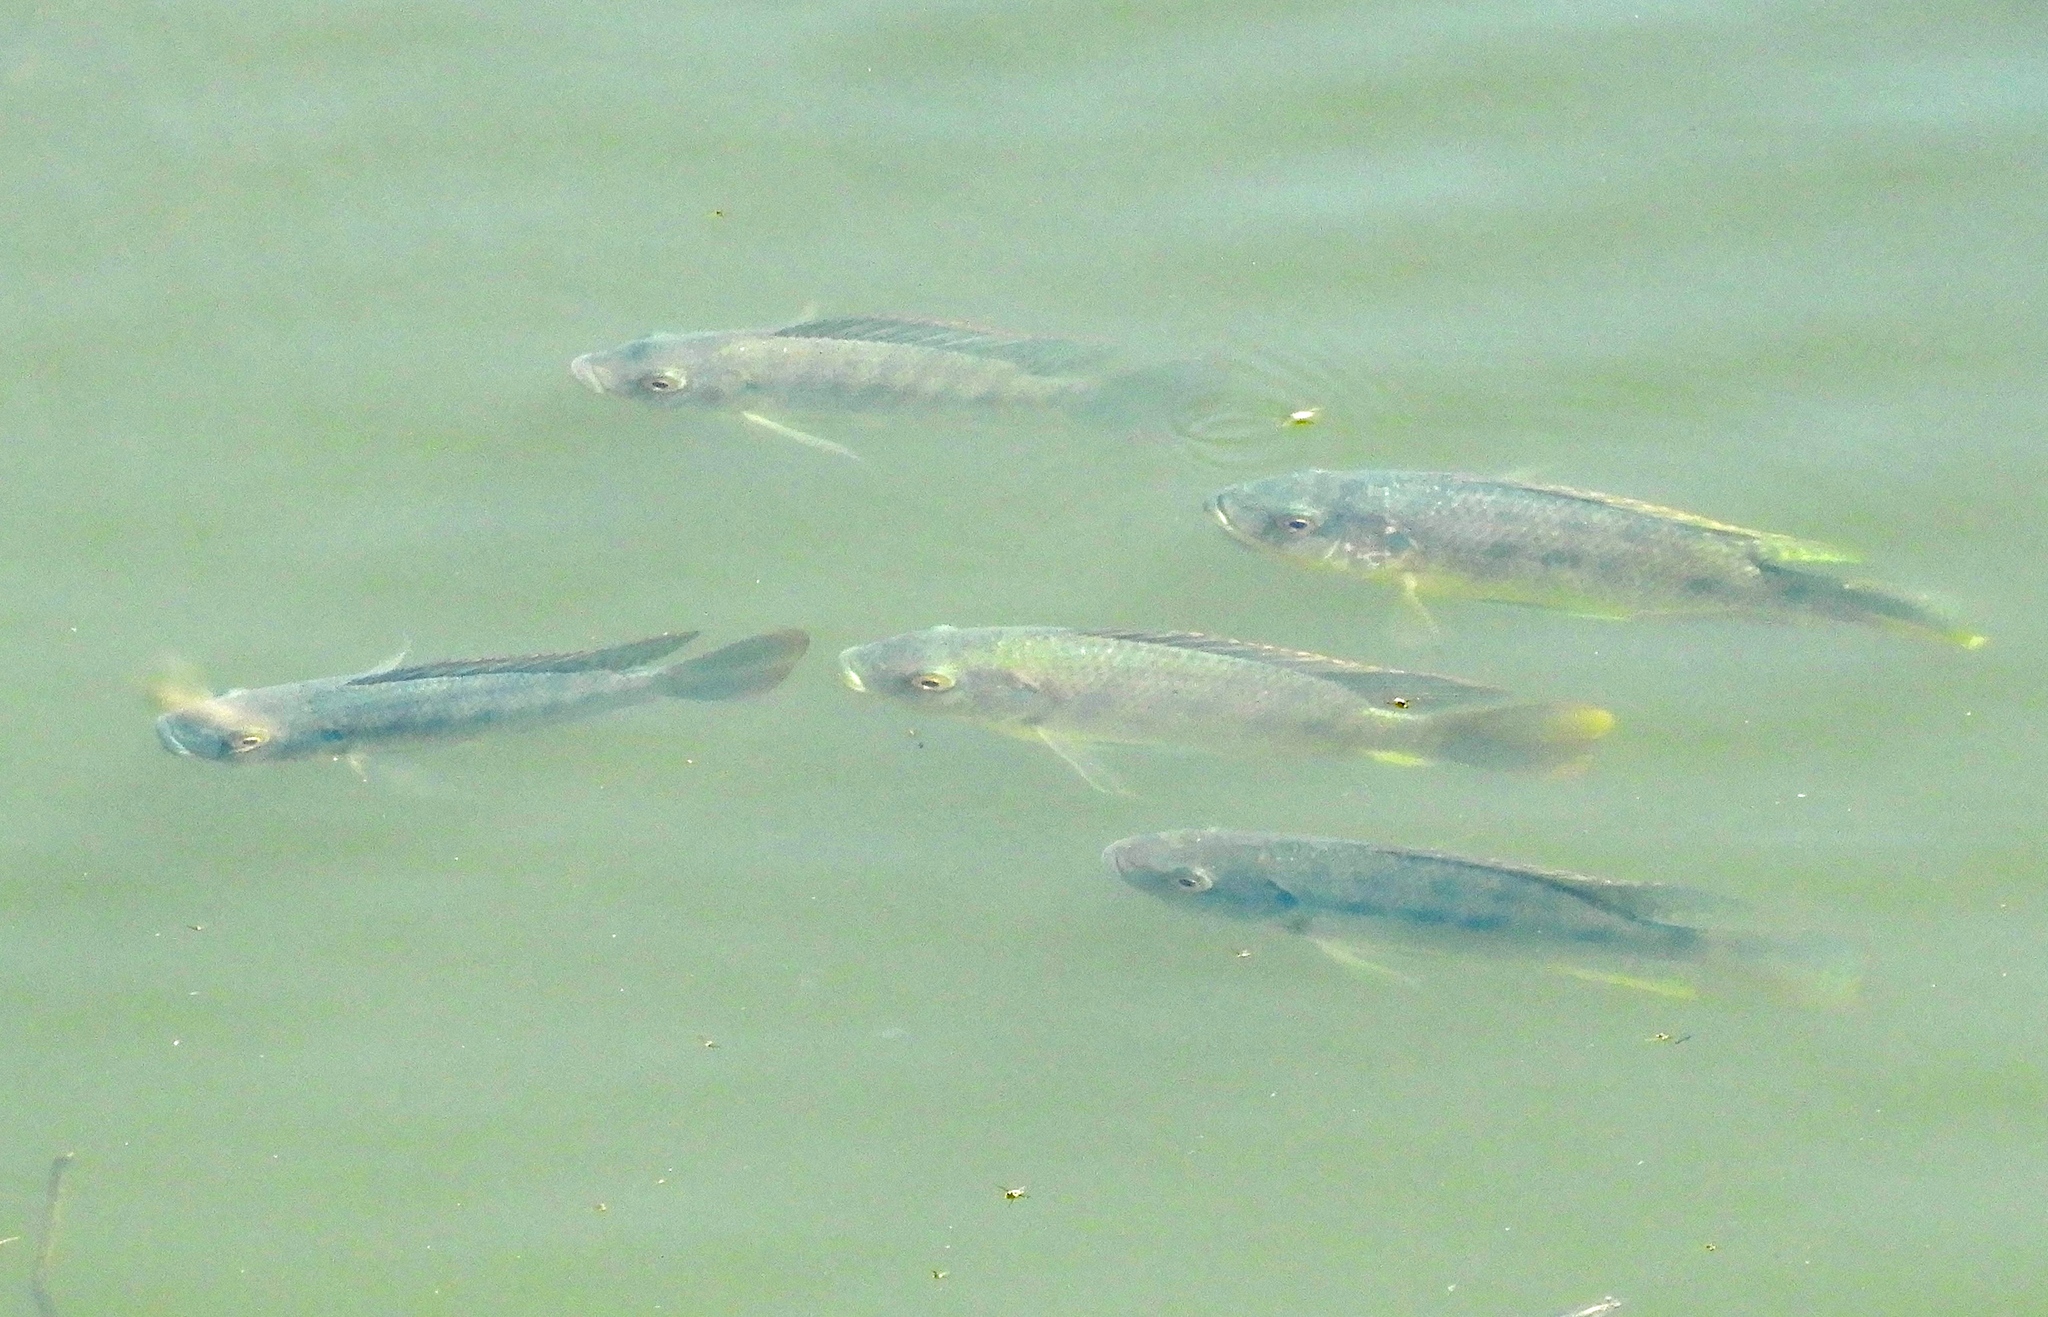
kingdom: Animalia
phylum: Chordata
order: Perciformes
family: Cichlidae
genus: Oreochromis
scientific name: Oreochromis niloticus
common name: Nile tilapia
